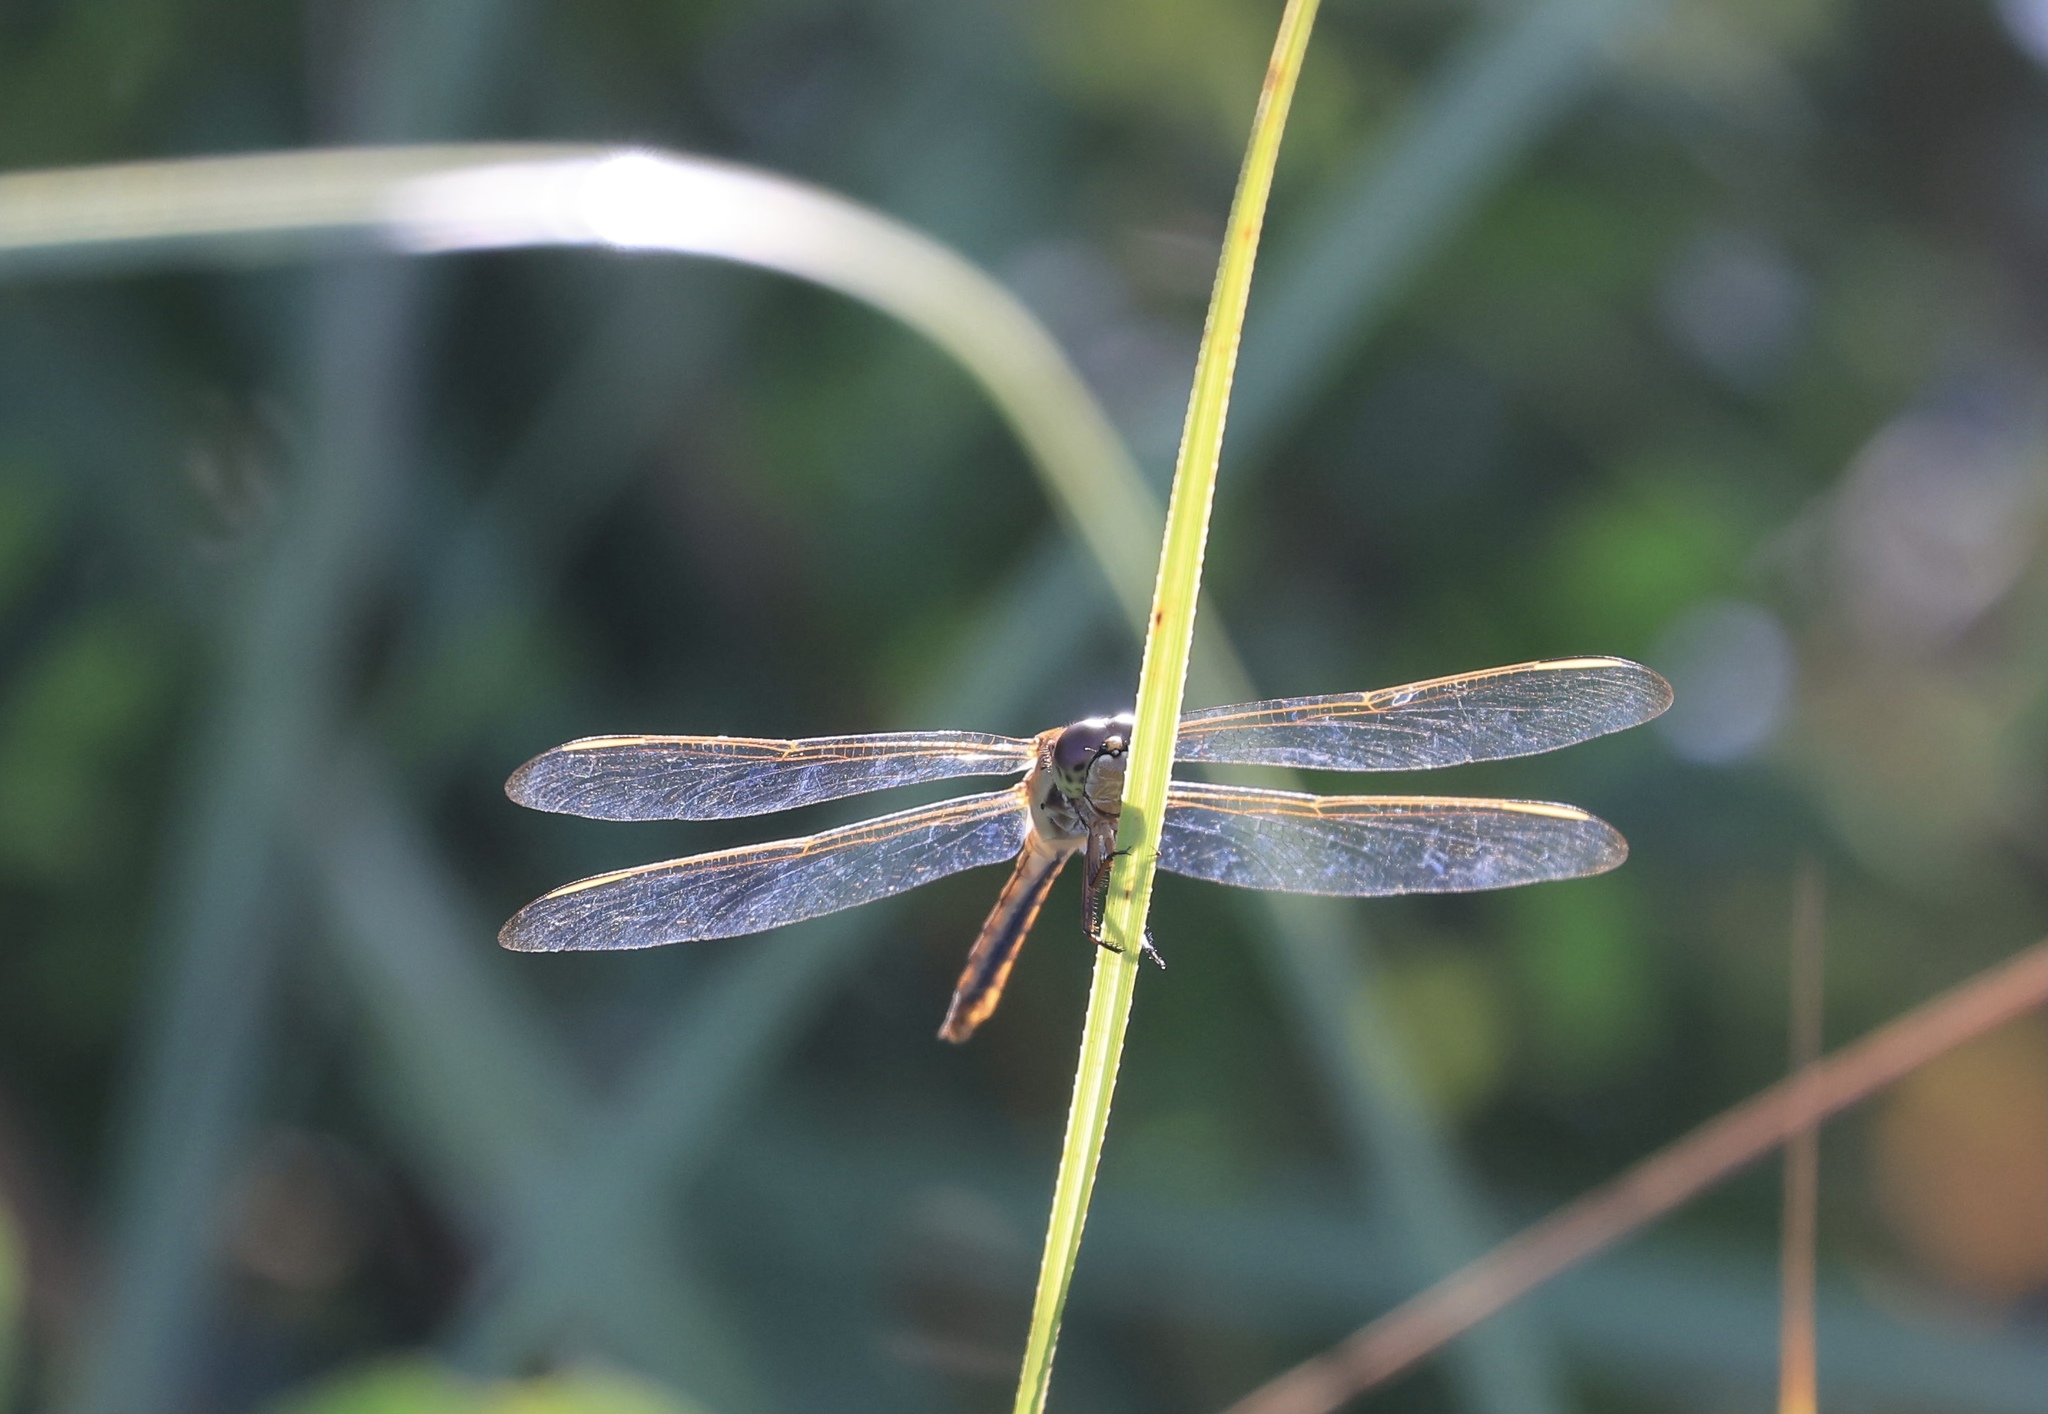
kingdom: Animalia
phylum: Arthropoda
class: Insecta
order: Odonata
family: Libellulidae
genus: Libellula
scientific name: Libellula needhami
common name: Needham's skimmer
